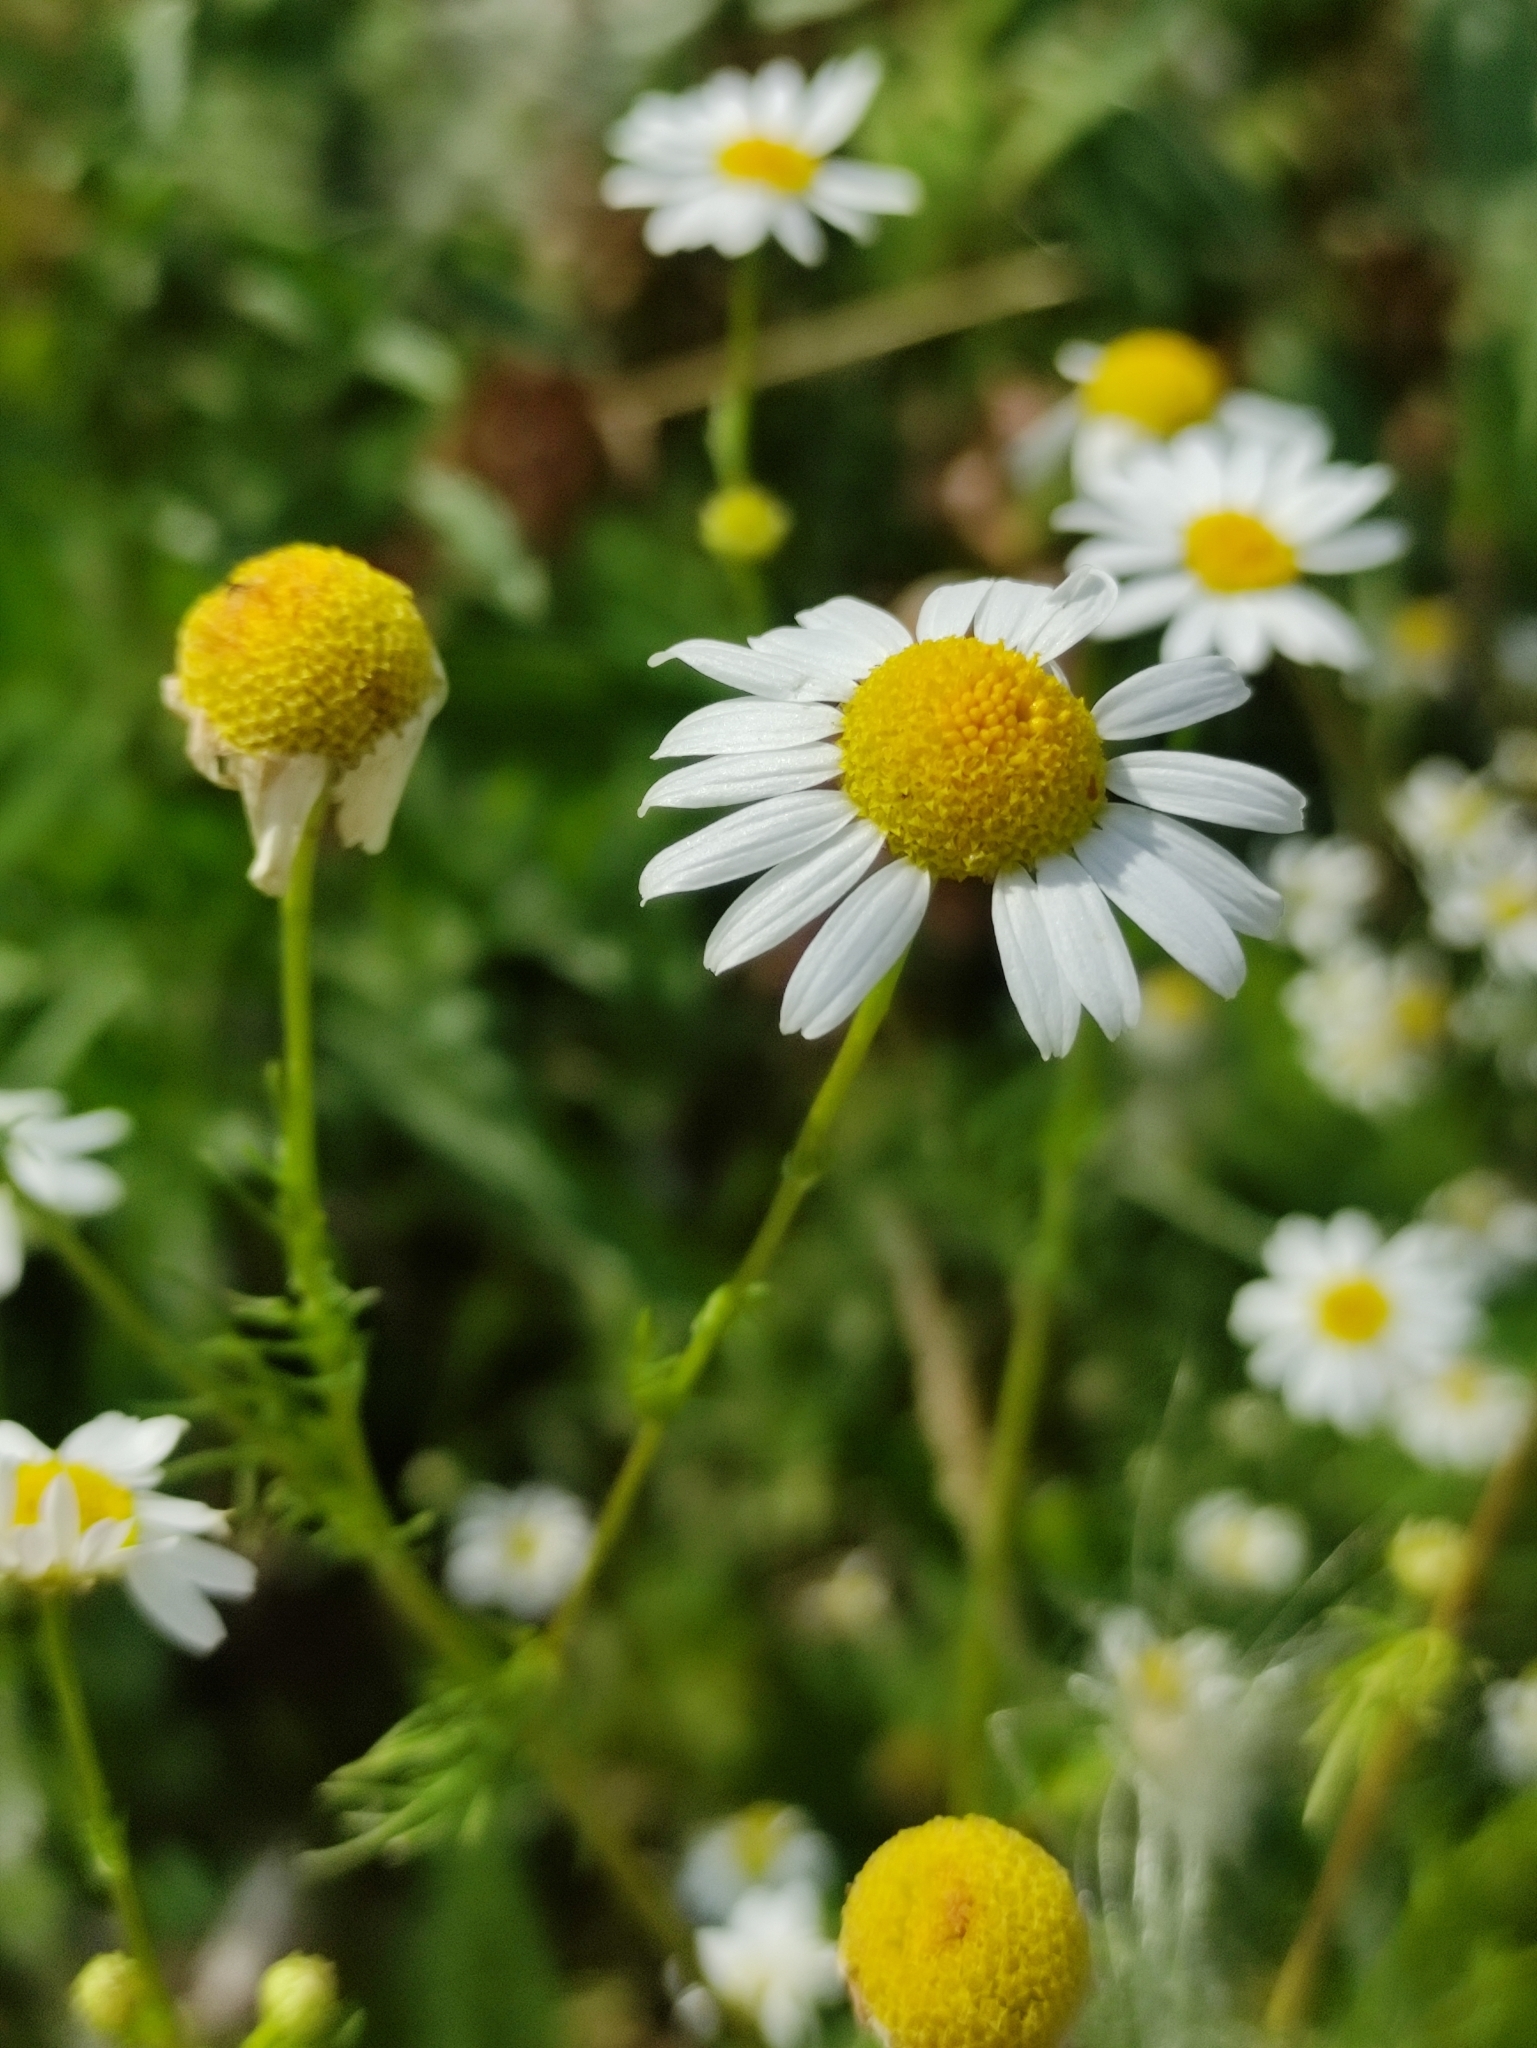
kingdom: Plantae
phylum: Tracheophyta
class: Magnoliopsida
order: Asterales
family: Asteraceae
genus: Tripleurospermum
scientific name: Tripleurospermum inodorum
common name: Scentless mayweed
